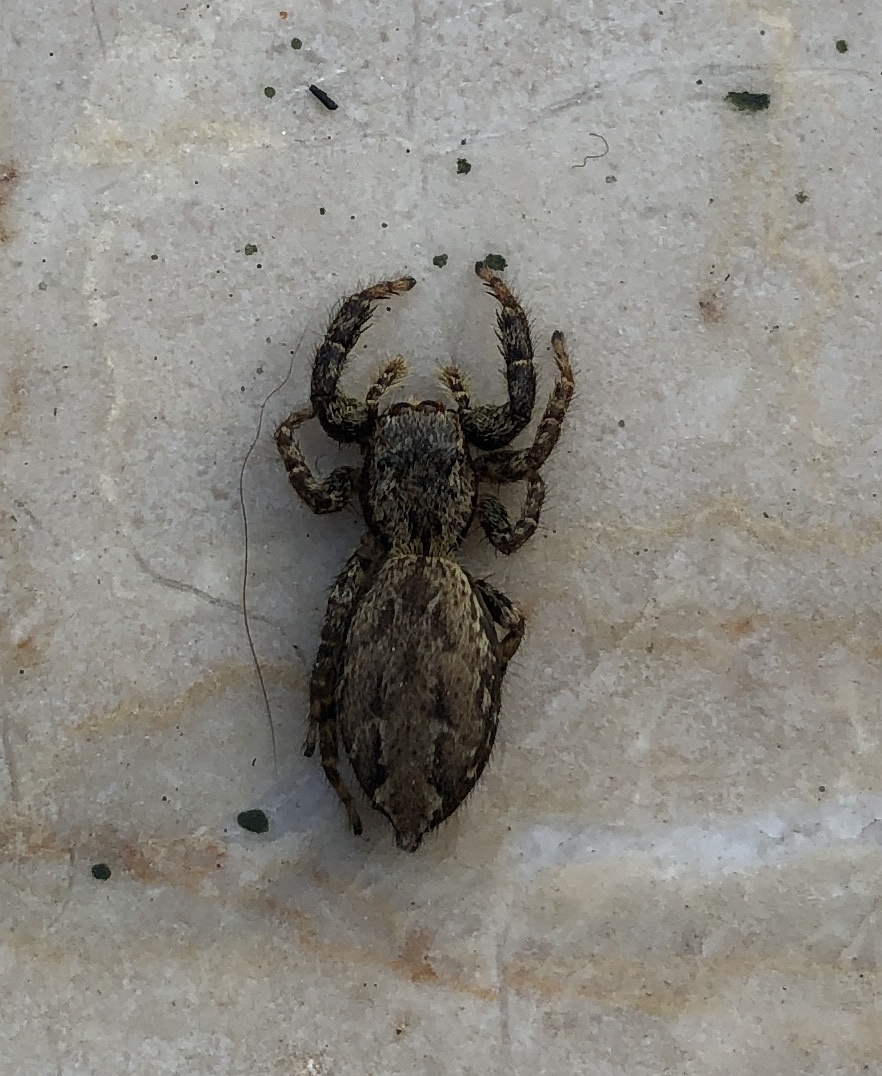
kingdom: Animalia
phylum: Arthropoda
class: Arachnida
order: Araneae
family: Salticidae
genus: Marpissa
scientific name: Marpissa muscosa
